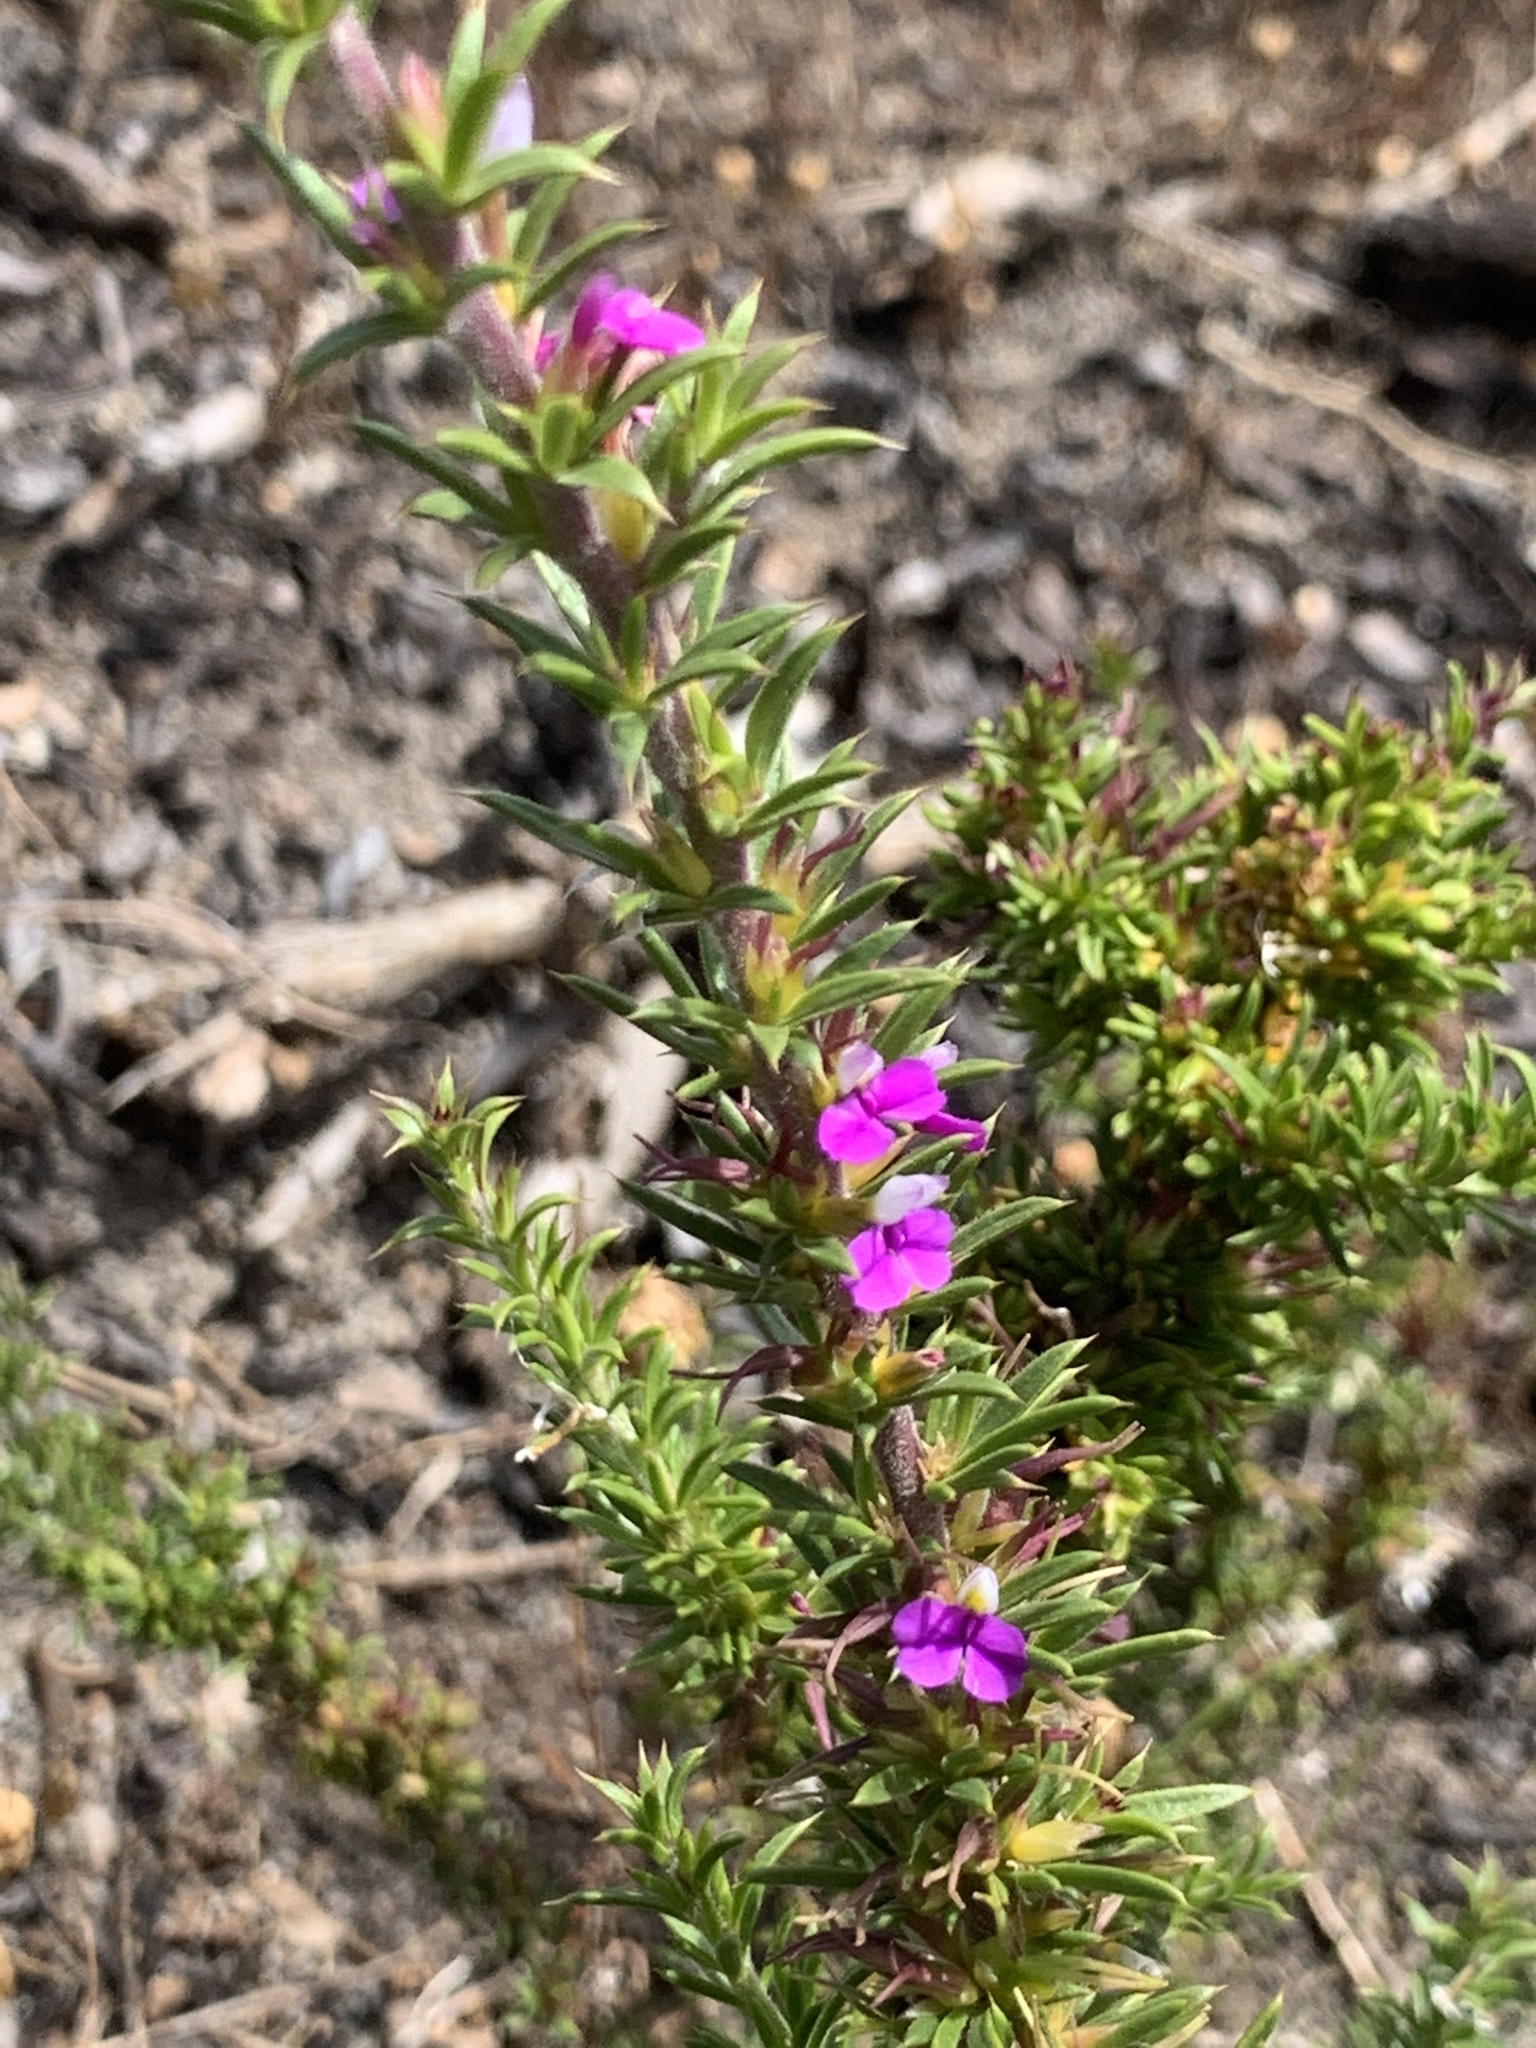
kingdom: Plantae
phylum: Tracheophyta
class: Magnoliopsida
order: Fabales
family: Polygalaceae
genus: Muraltia
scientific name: Muraltia heisteria
